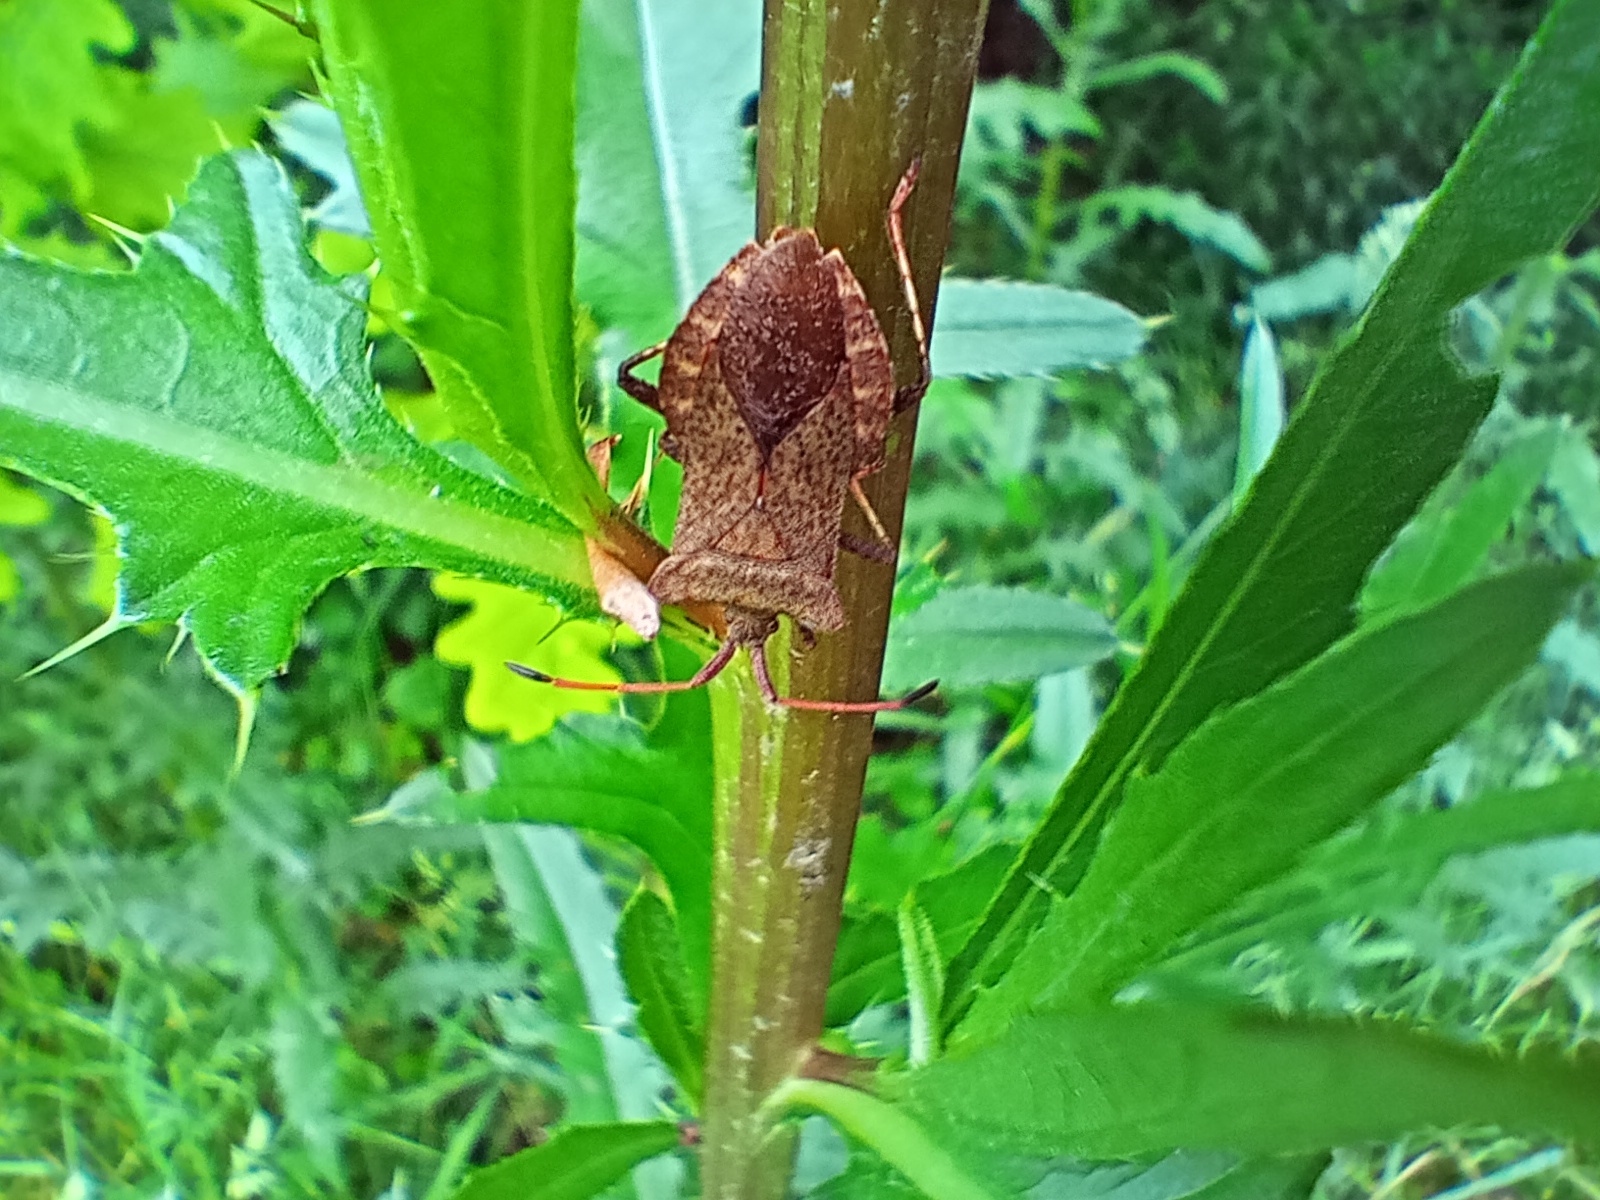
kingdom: Animalia
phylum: Arthropoda
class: Insecta
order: Hemiptera
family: Coreidae
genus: Coreus
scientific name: Coreus marginatus
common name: Dock bug
